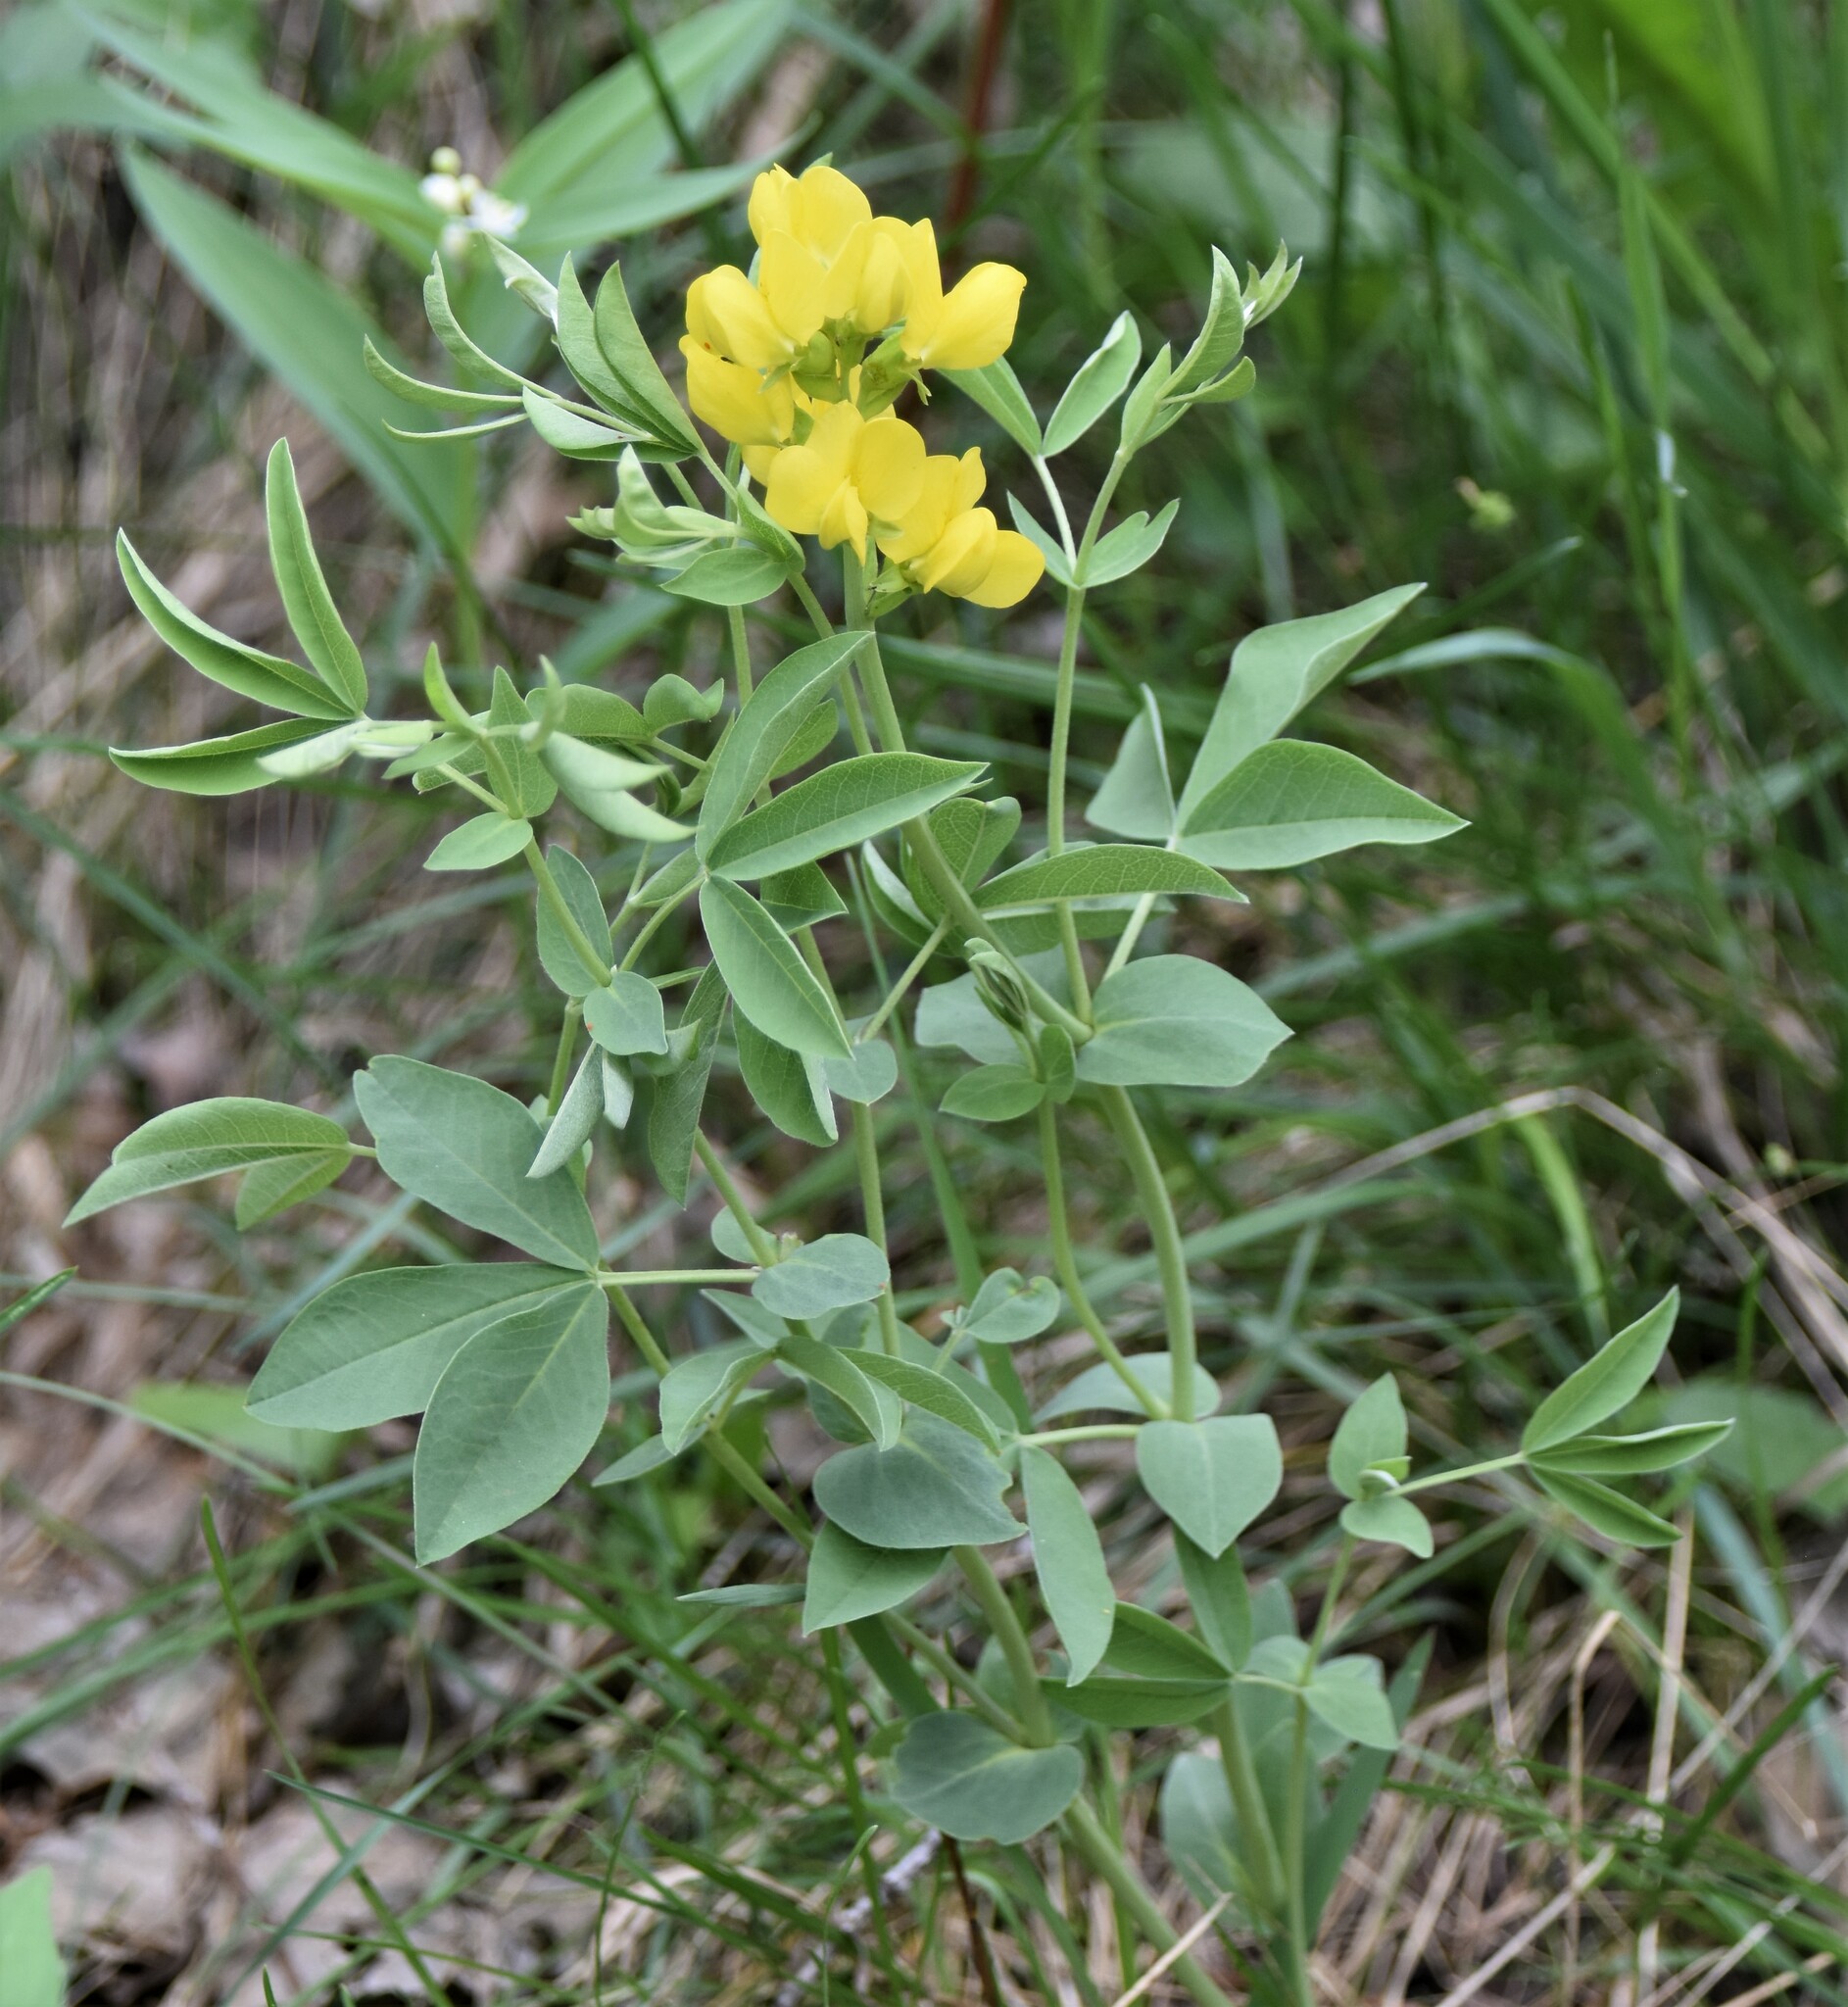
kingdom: Plantae
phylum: Tracheophyta
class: Magnoliopsida
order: Fabales
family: Fabaceae
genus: Thermopsis
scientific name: Thermopsis rhombifolia
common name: Circle-pod-pea
